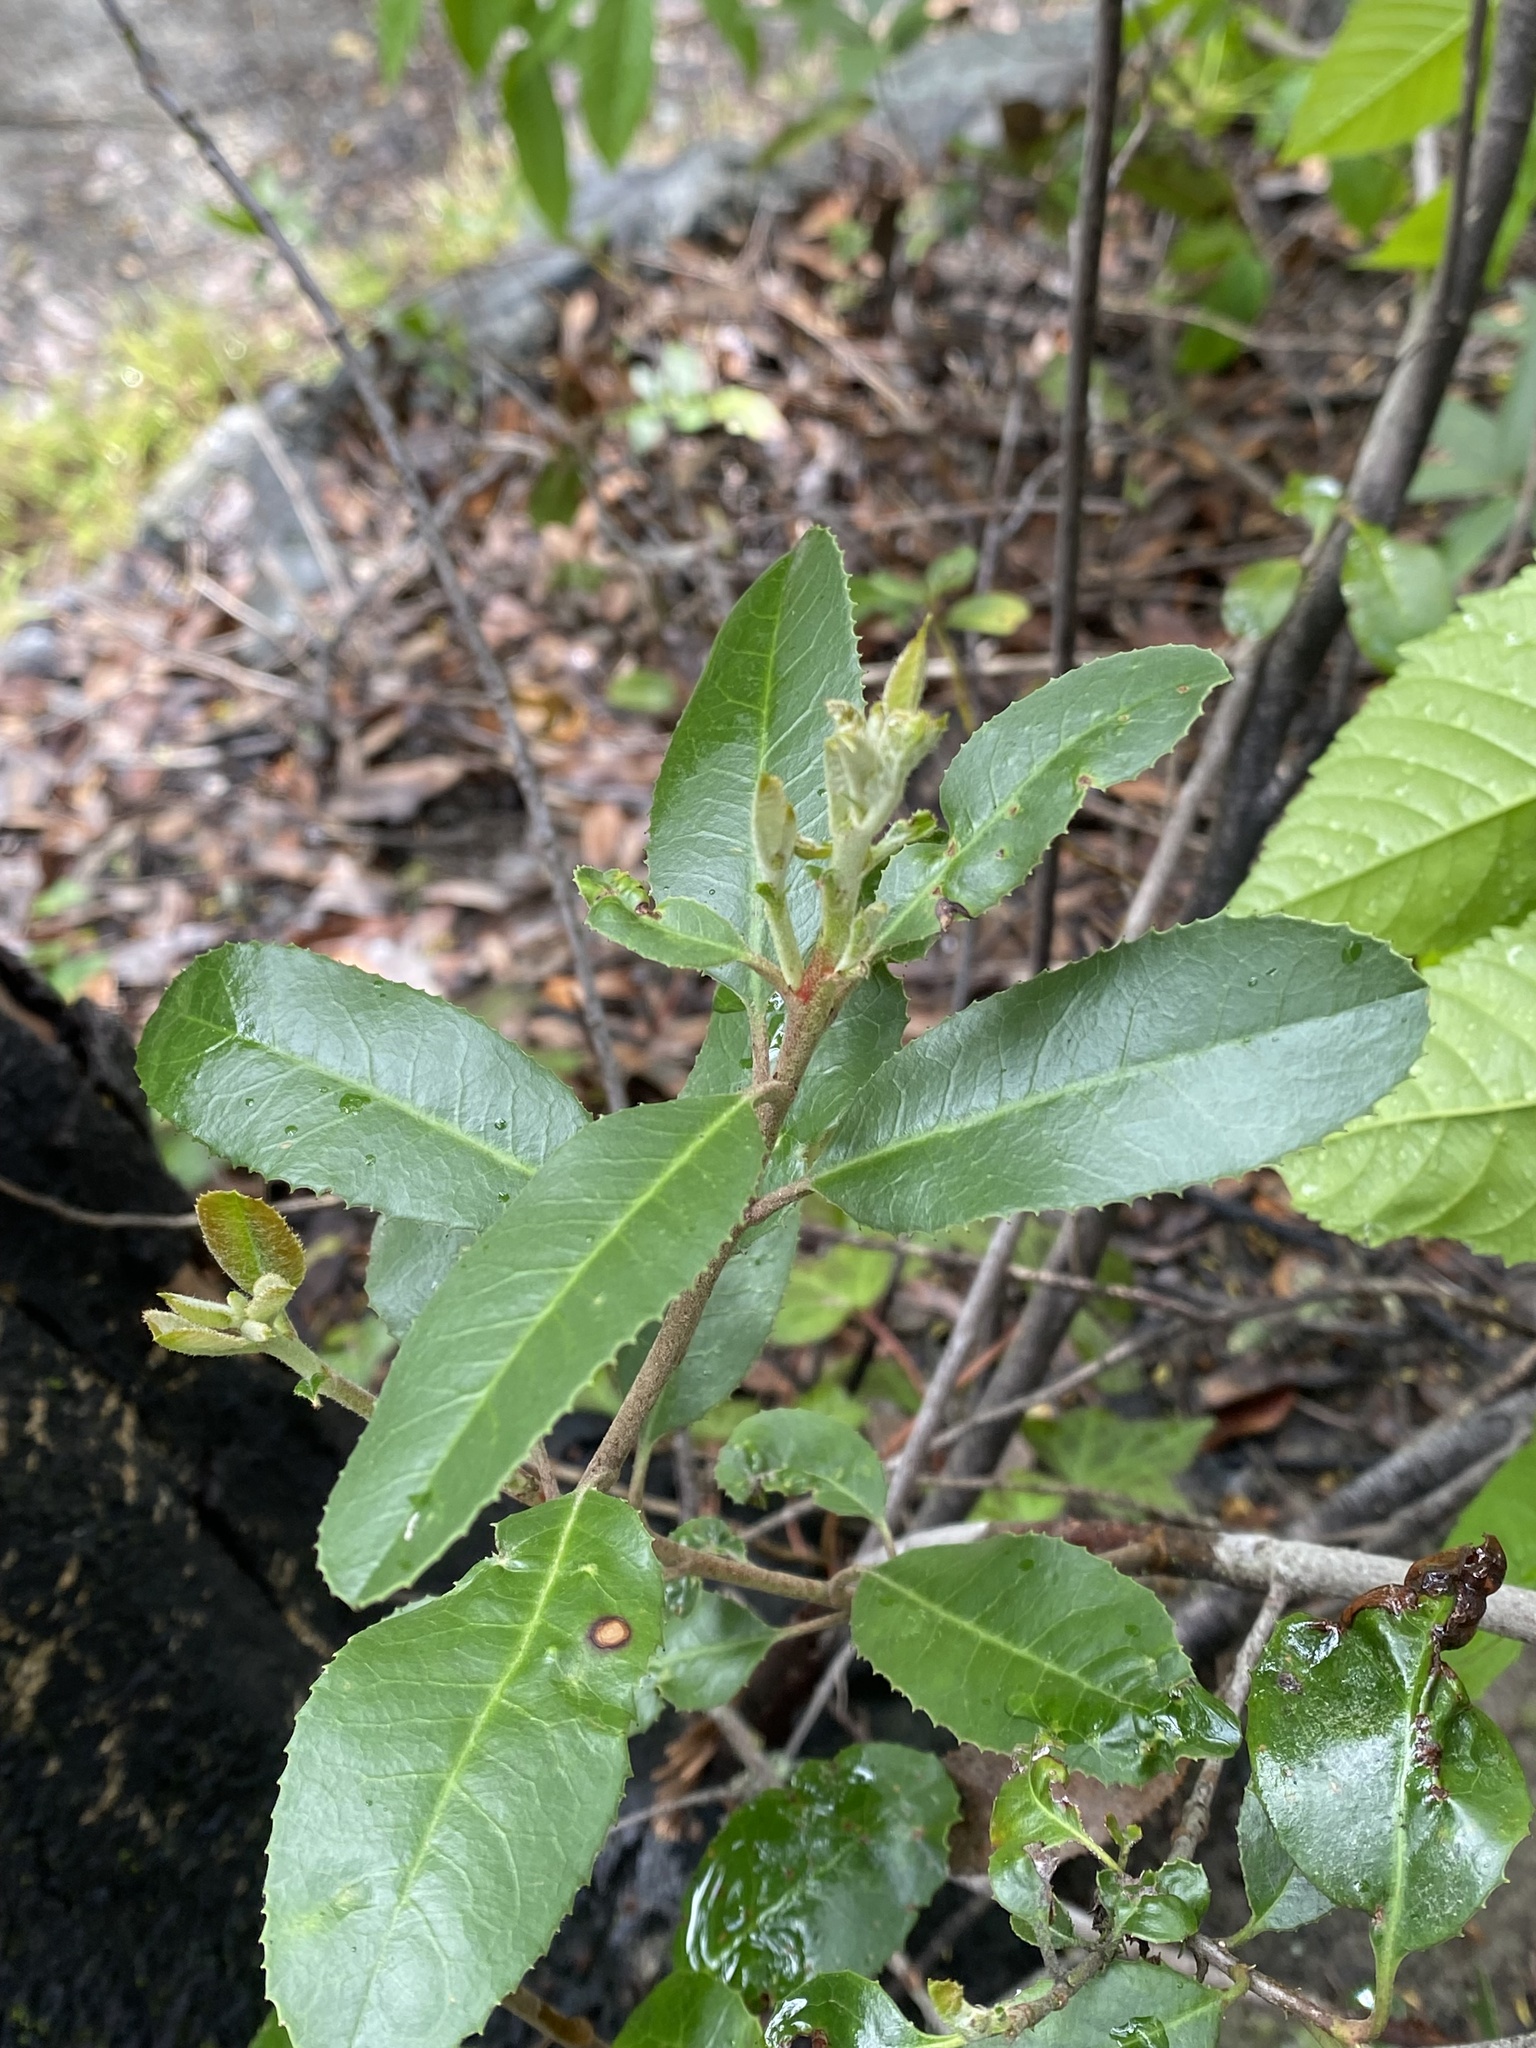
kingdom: Plantae
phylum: Tracheophyta
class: Magnoliopsida
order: Rosales
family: Rosaceae
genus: Heteromeles
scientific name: Heteromeles arbutifolia
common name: California-holly
